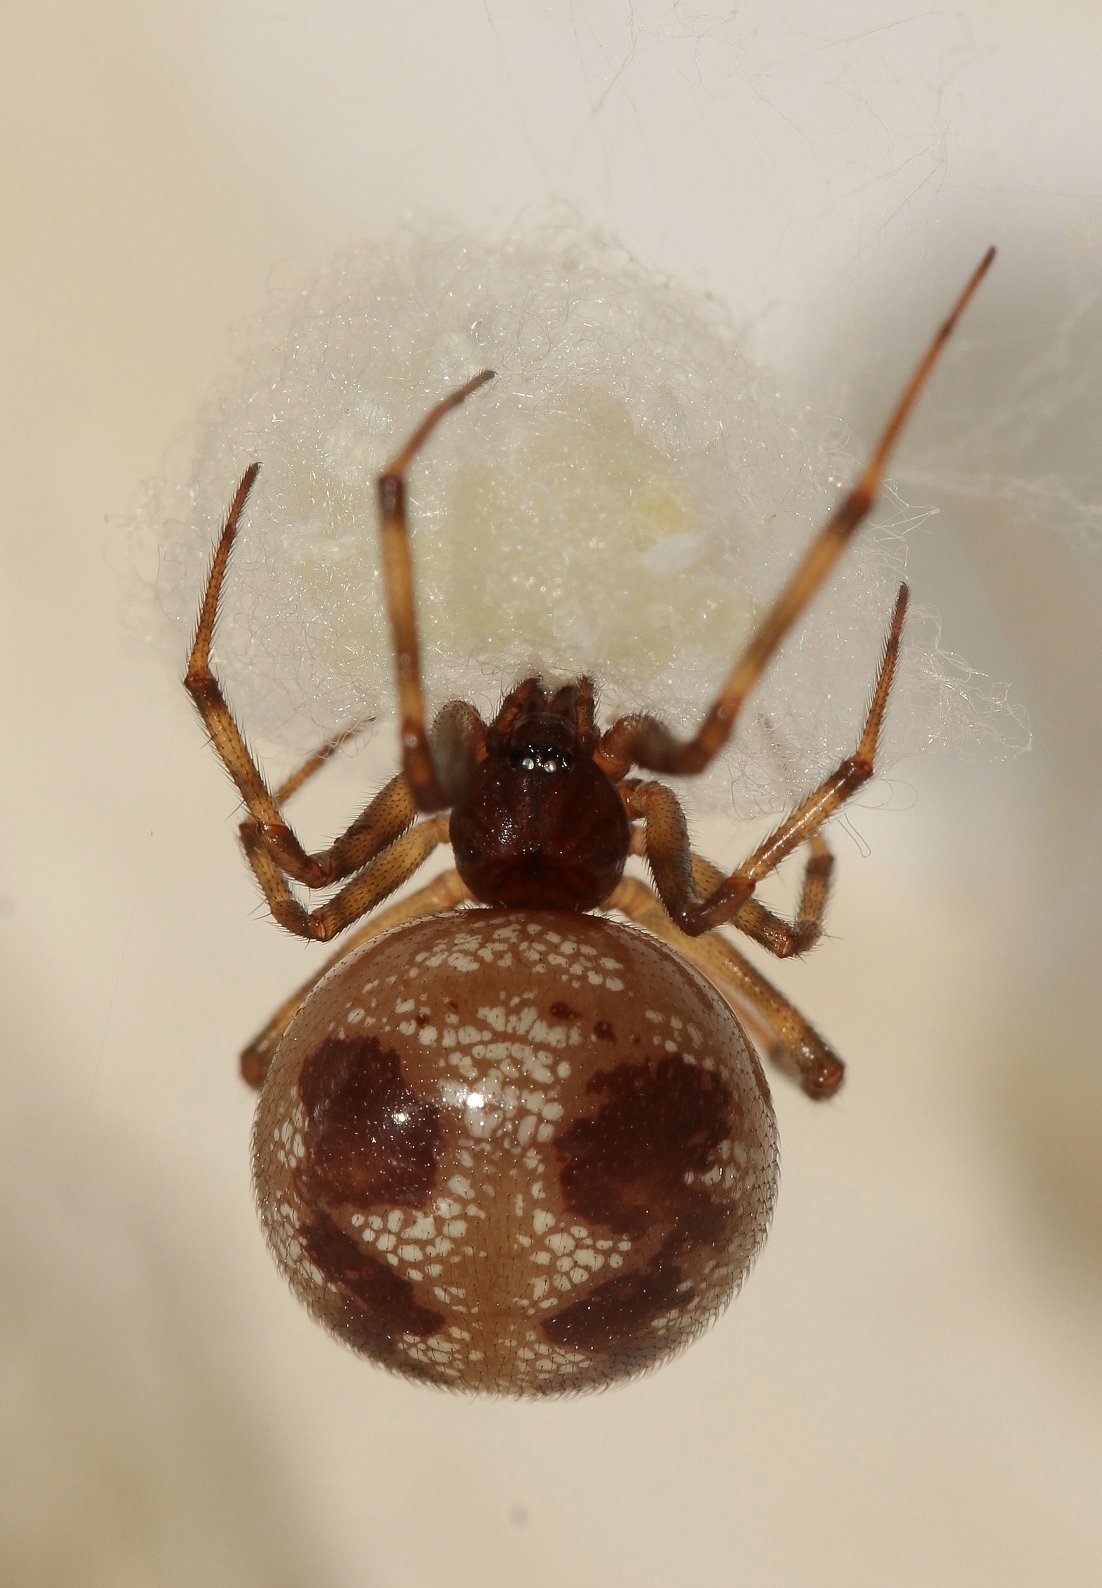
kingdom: Animalia
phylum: Arthropoda
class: Arachnida
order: Araneae
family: Theridiidae
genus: Steatoda
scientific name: Steatoda triangulosa
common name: Triangulate bud spider
